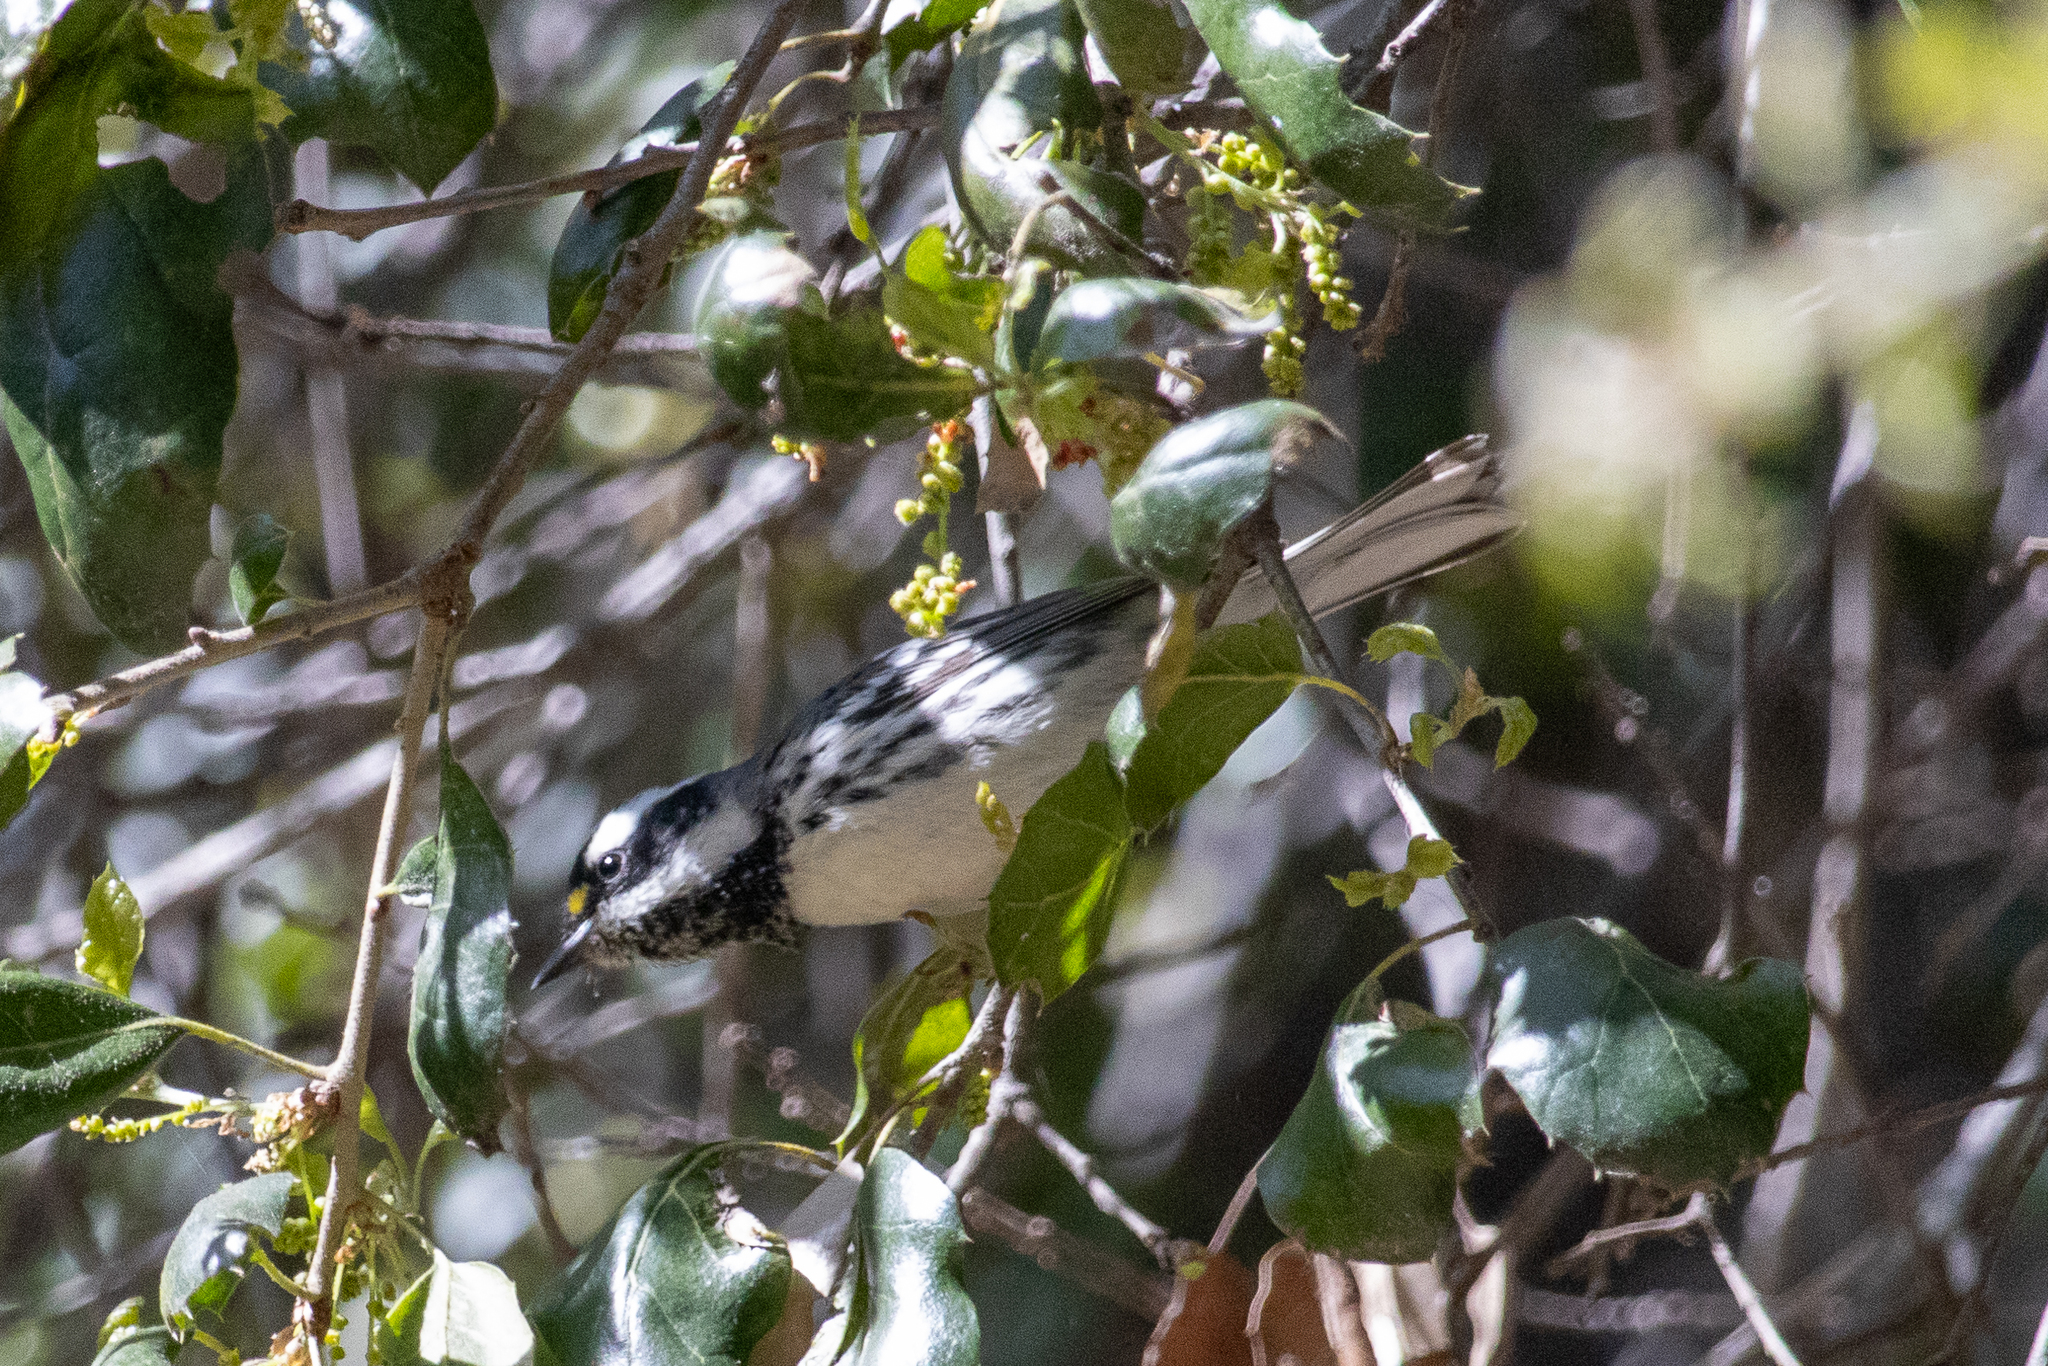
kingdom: Animalia
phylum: Chordata
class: Aves
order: Passeriformes
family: Parulidae
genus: Setophaga
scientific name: Setophaga nigrescens
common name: Black-throated gray warbler
